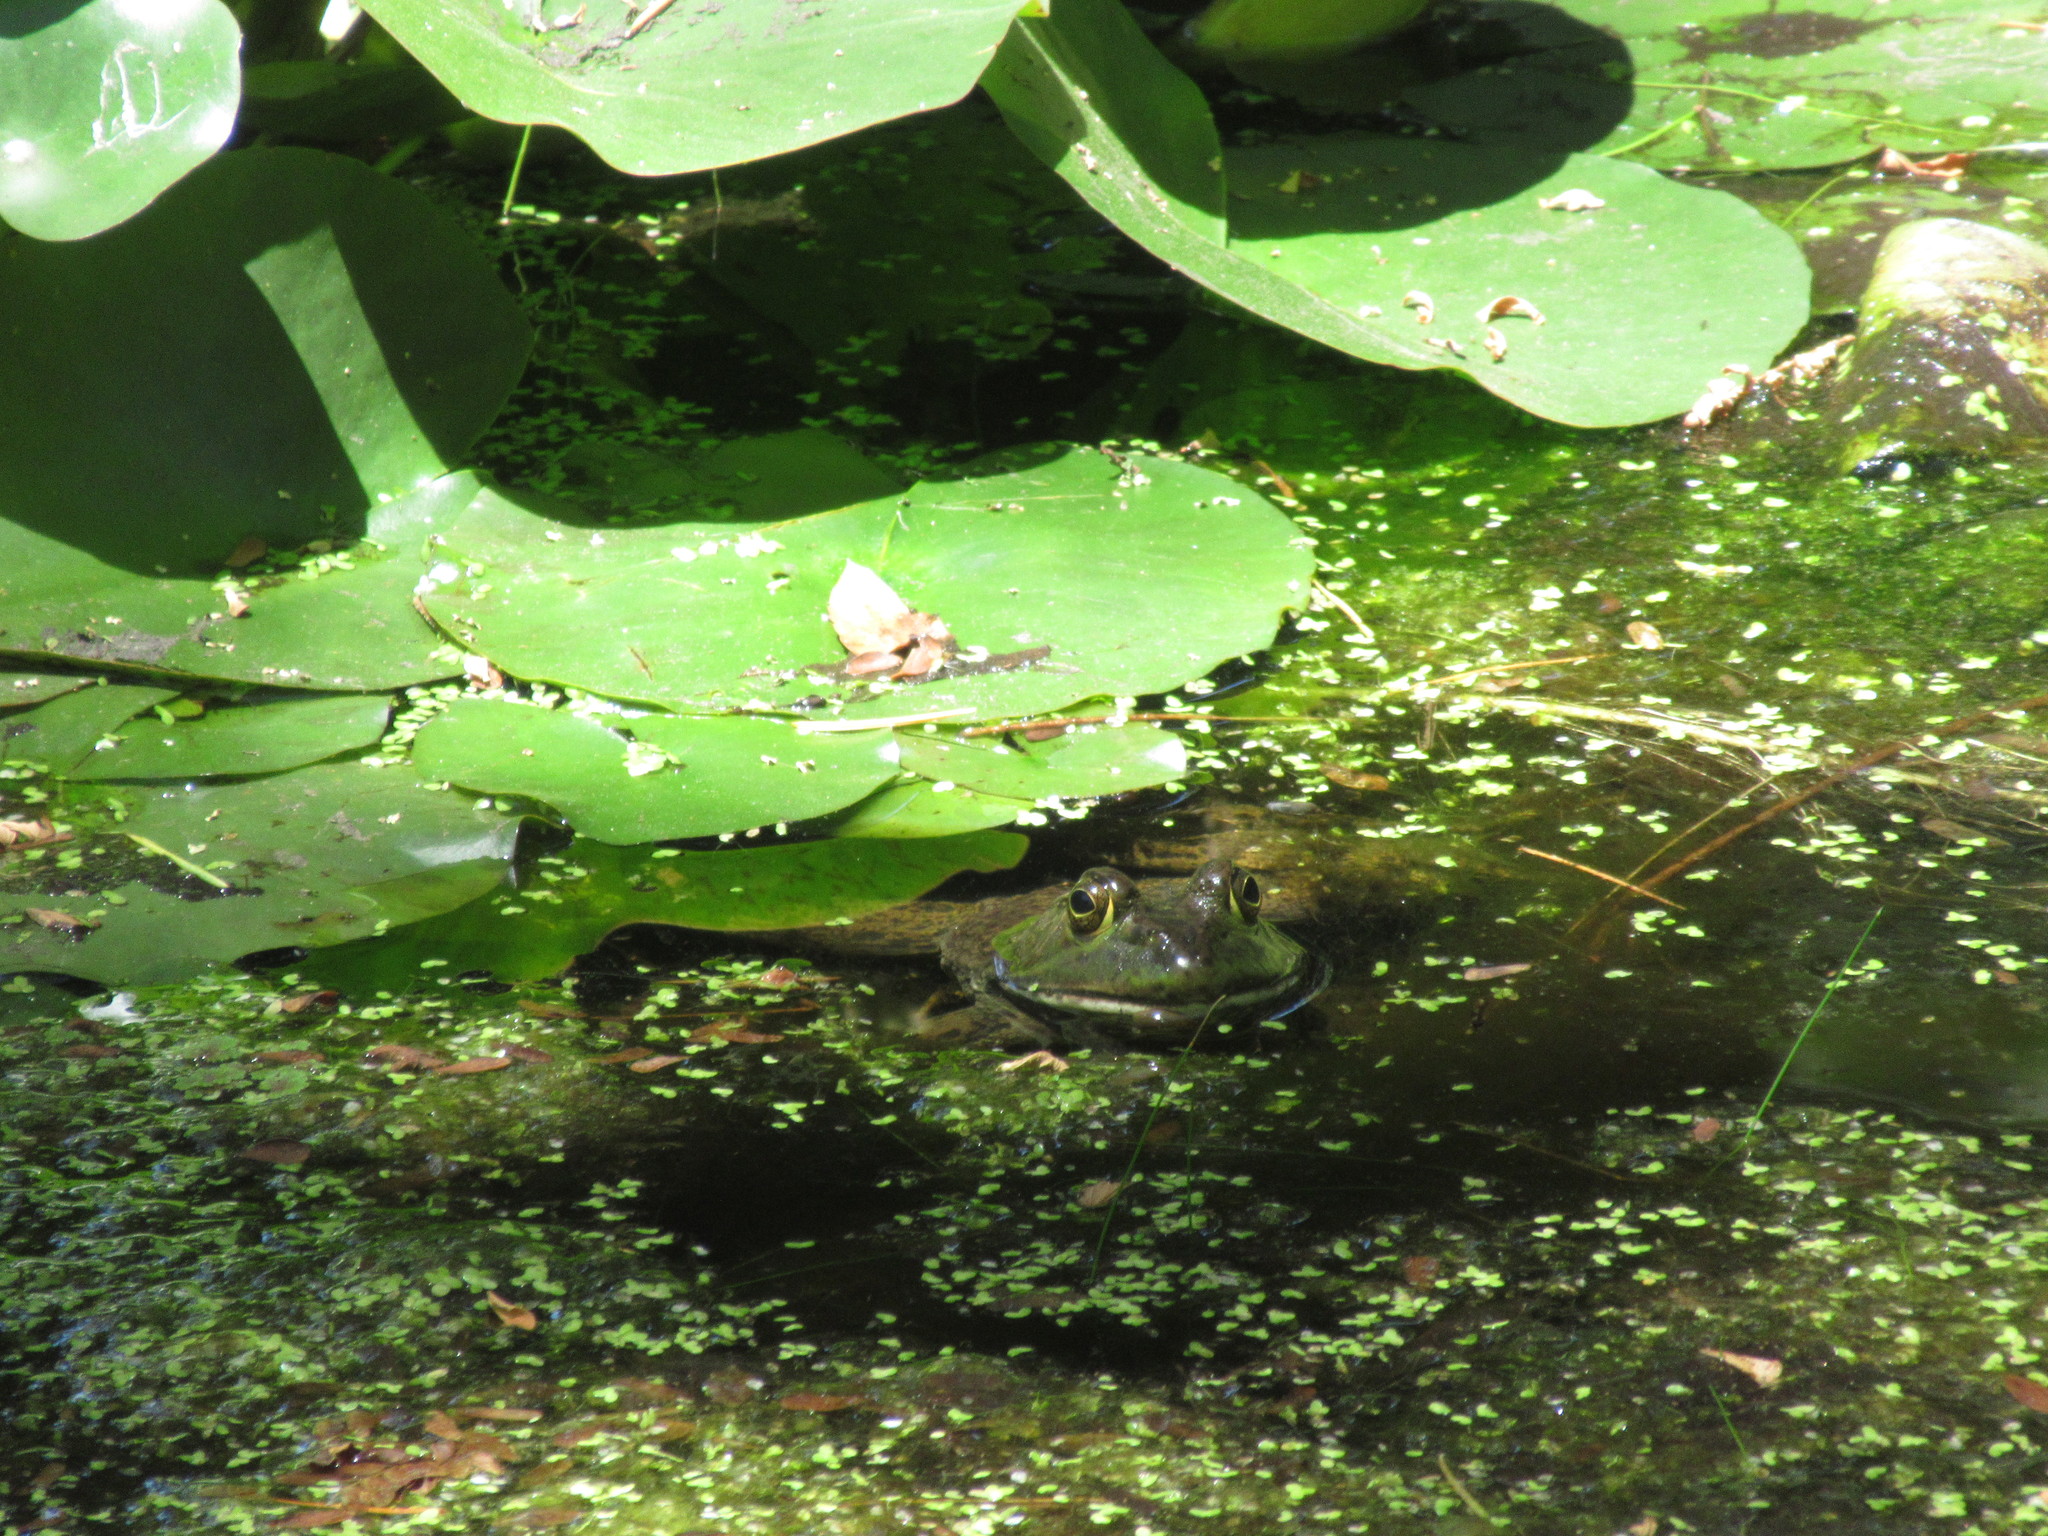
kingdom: Animalia
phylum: Chordata
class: Amphibia
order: Anura
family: Ranidae
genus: Lithobates
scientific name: Lithobates catesbeianus
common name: American bullfrog
